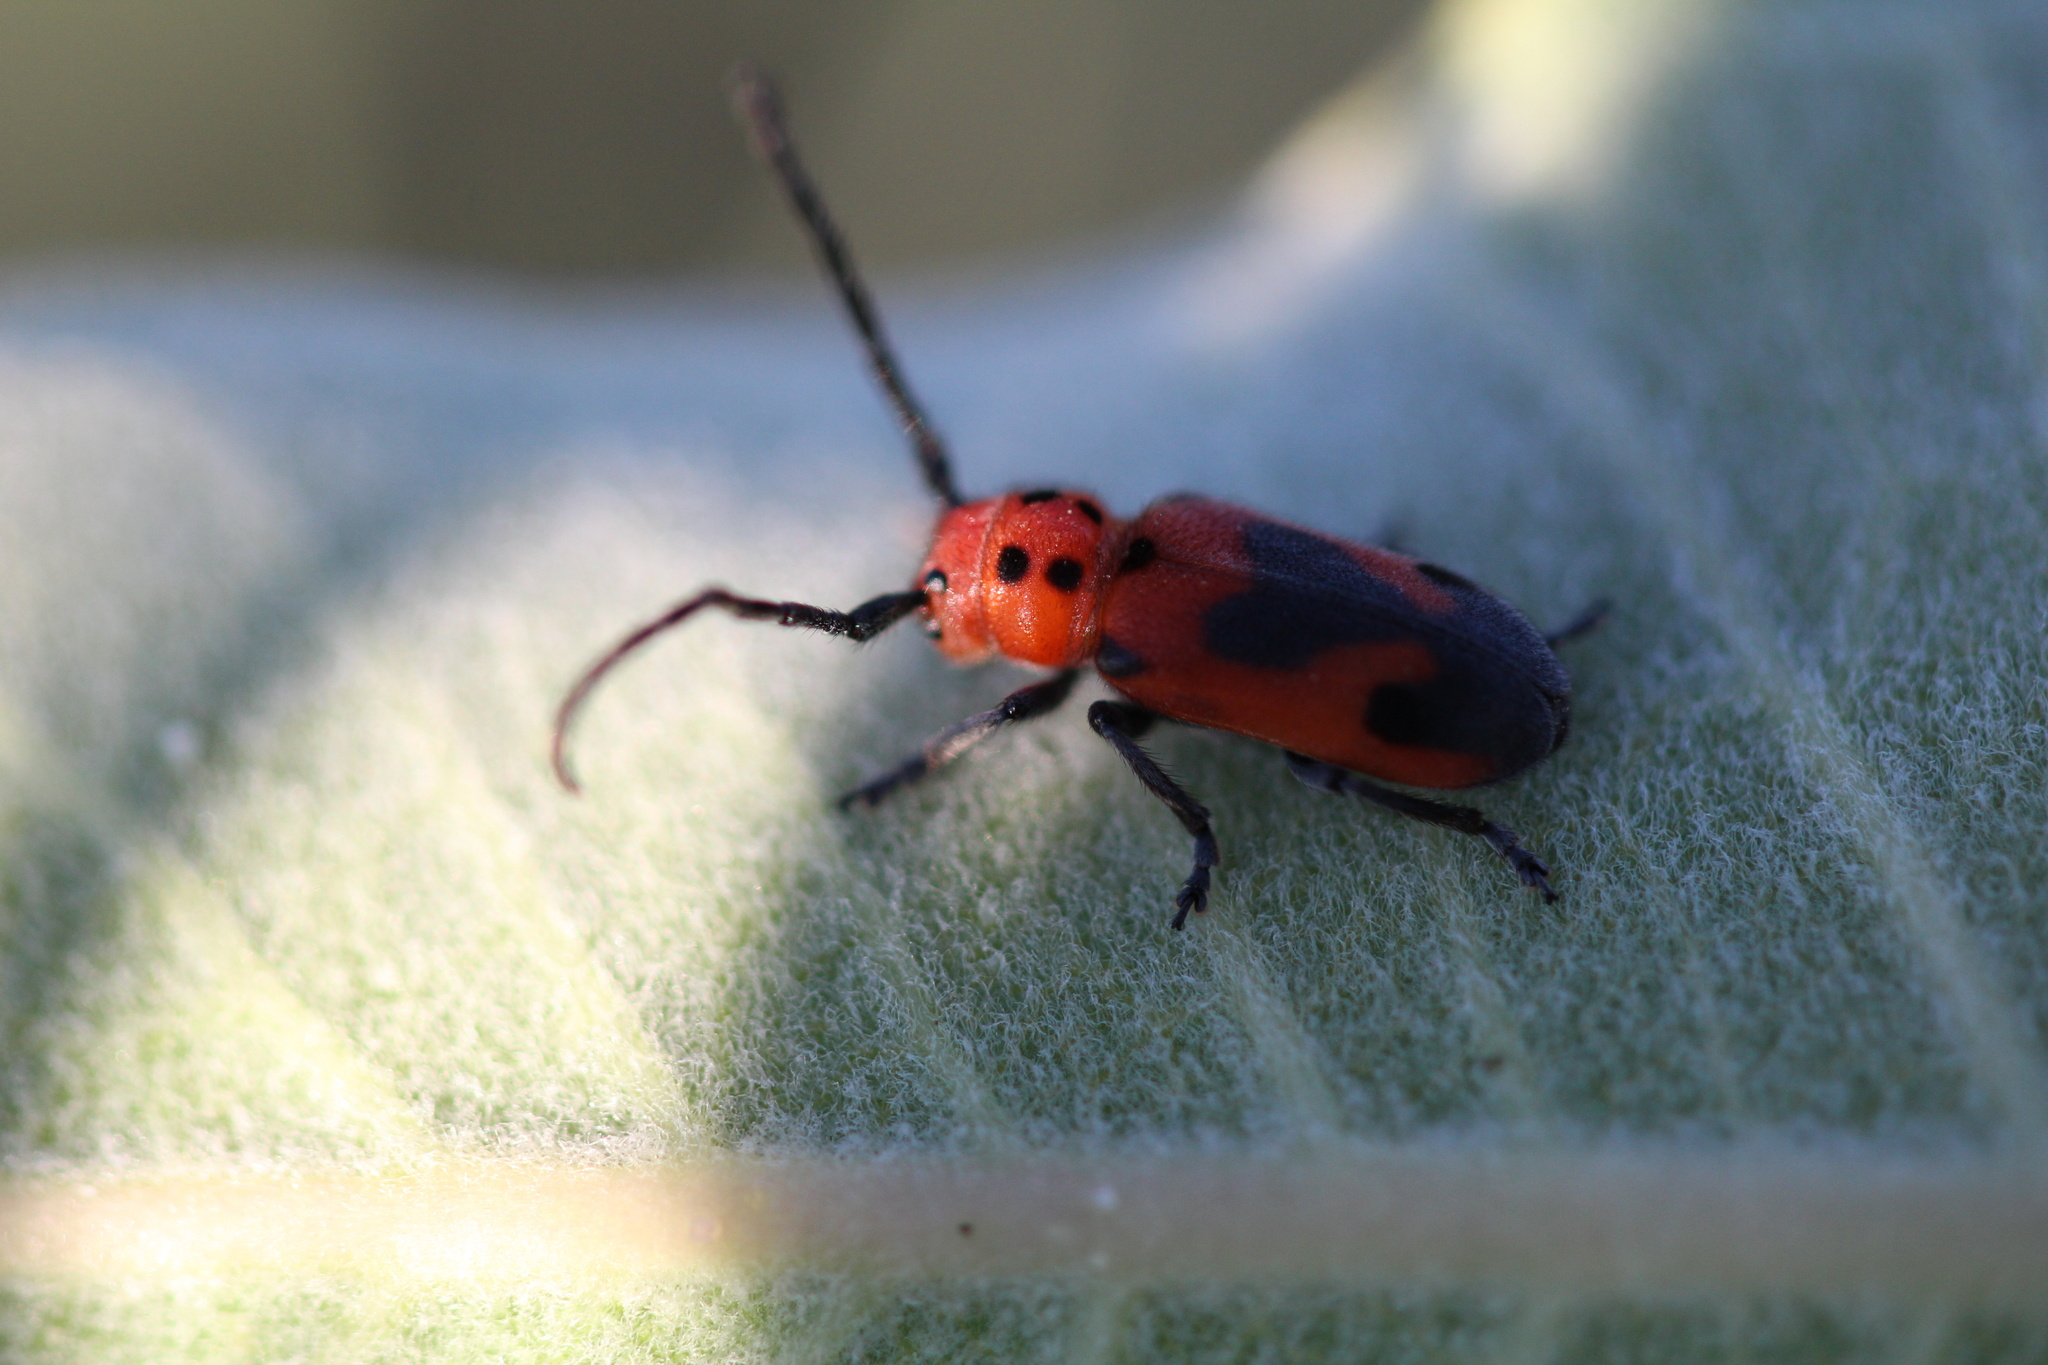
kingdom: Animalia
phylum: Arthropoda
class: Insecta
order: Coleoptera
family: Cerambycidae
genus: Tetraopes
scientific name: Tetraopes melanurus
